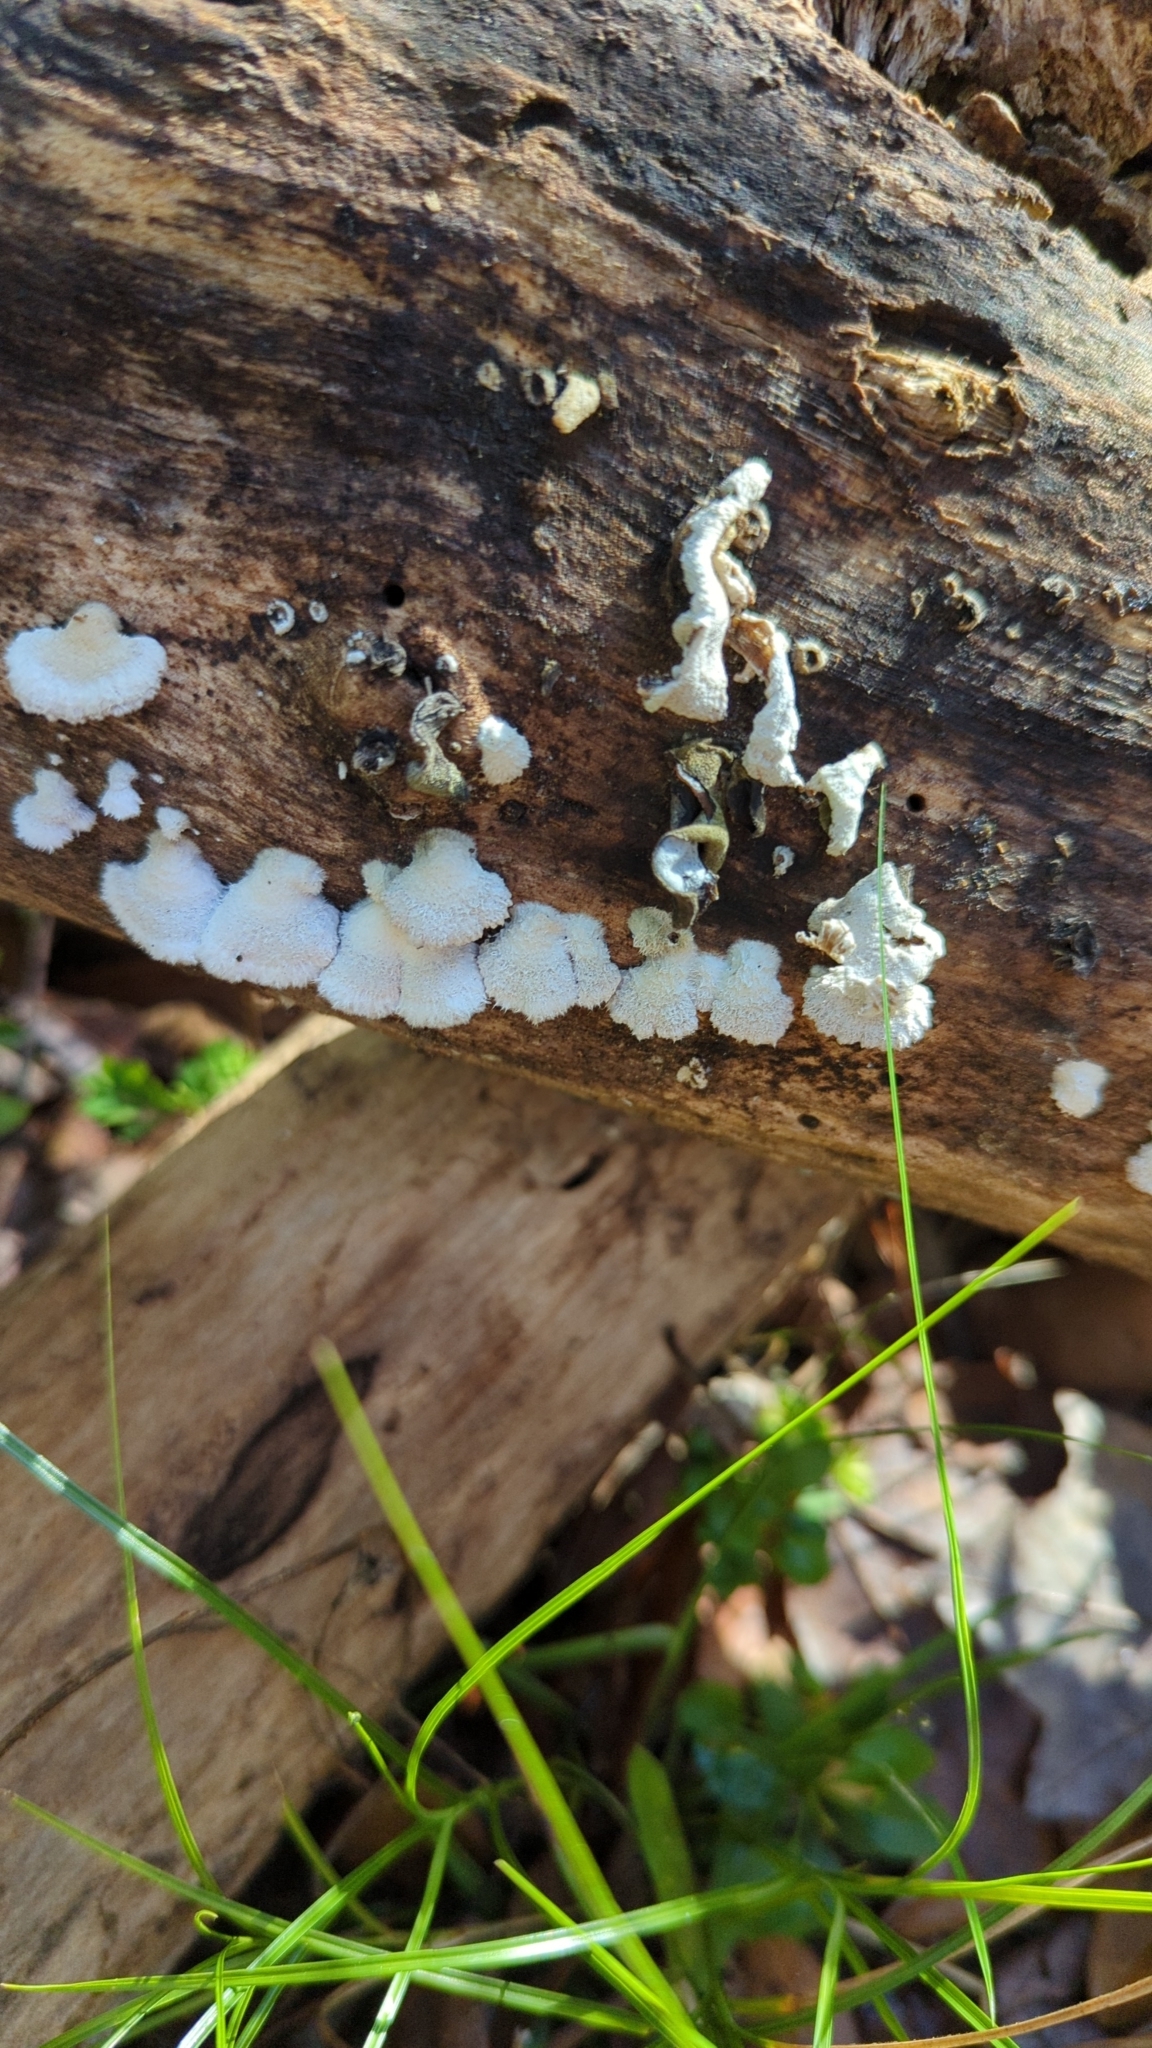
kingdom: Fungi
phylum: Basidiomycota
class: Agaricomycetes
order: Agaricales
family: Schizophyllaceae
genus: Schizophyllum
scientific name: Schizophyllum commune
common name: Common porecrust
